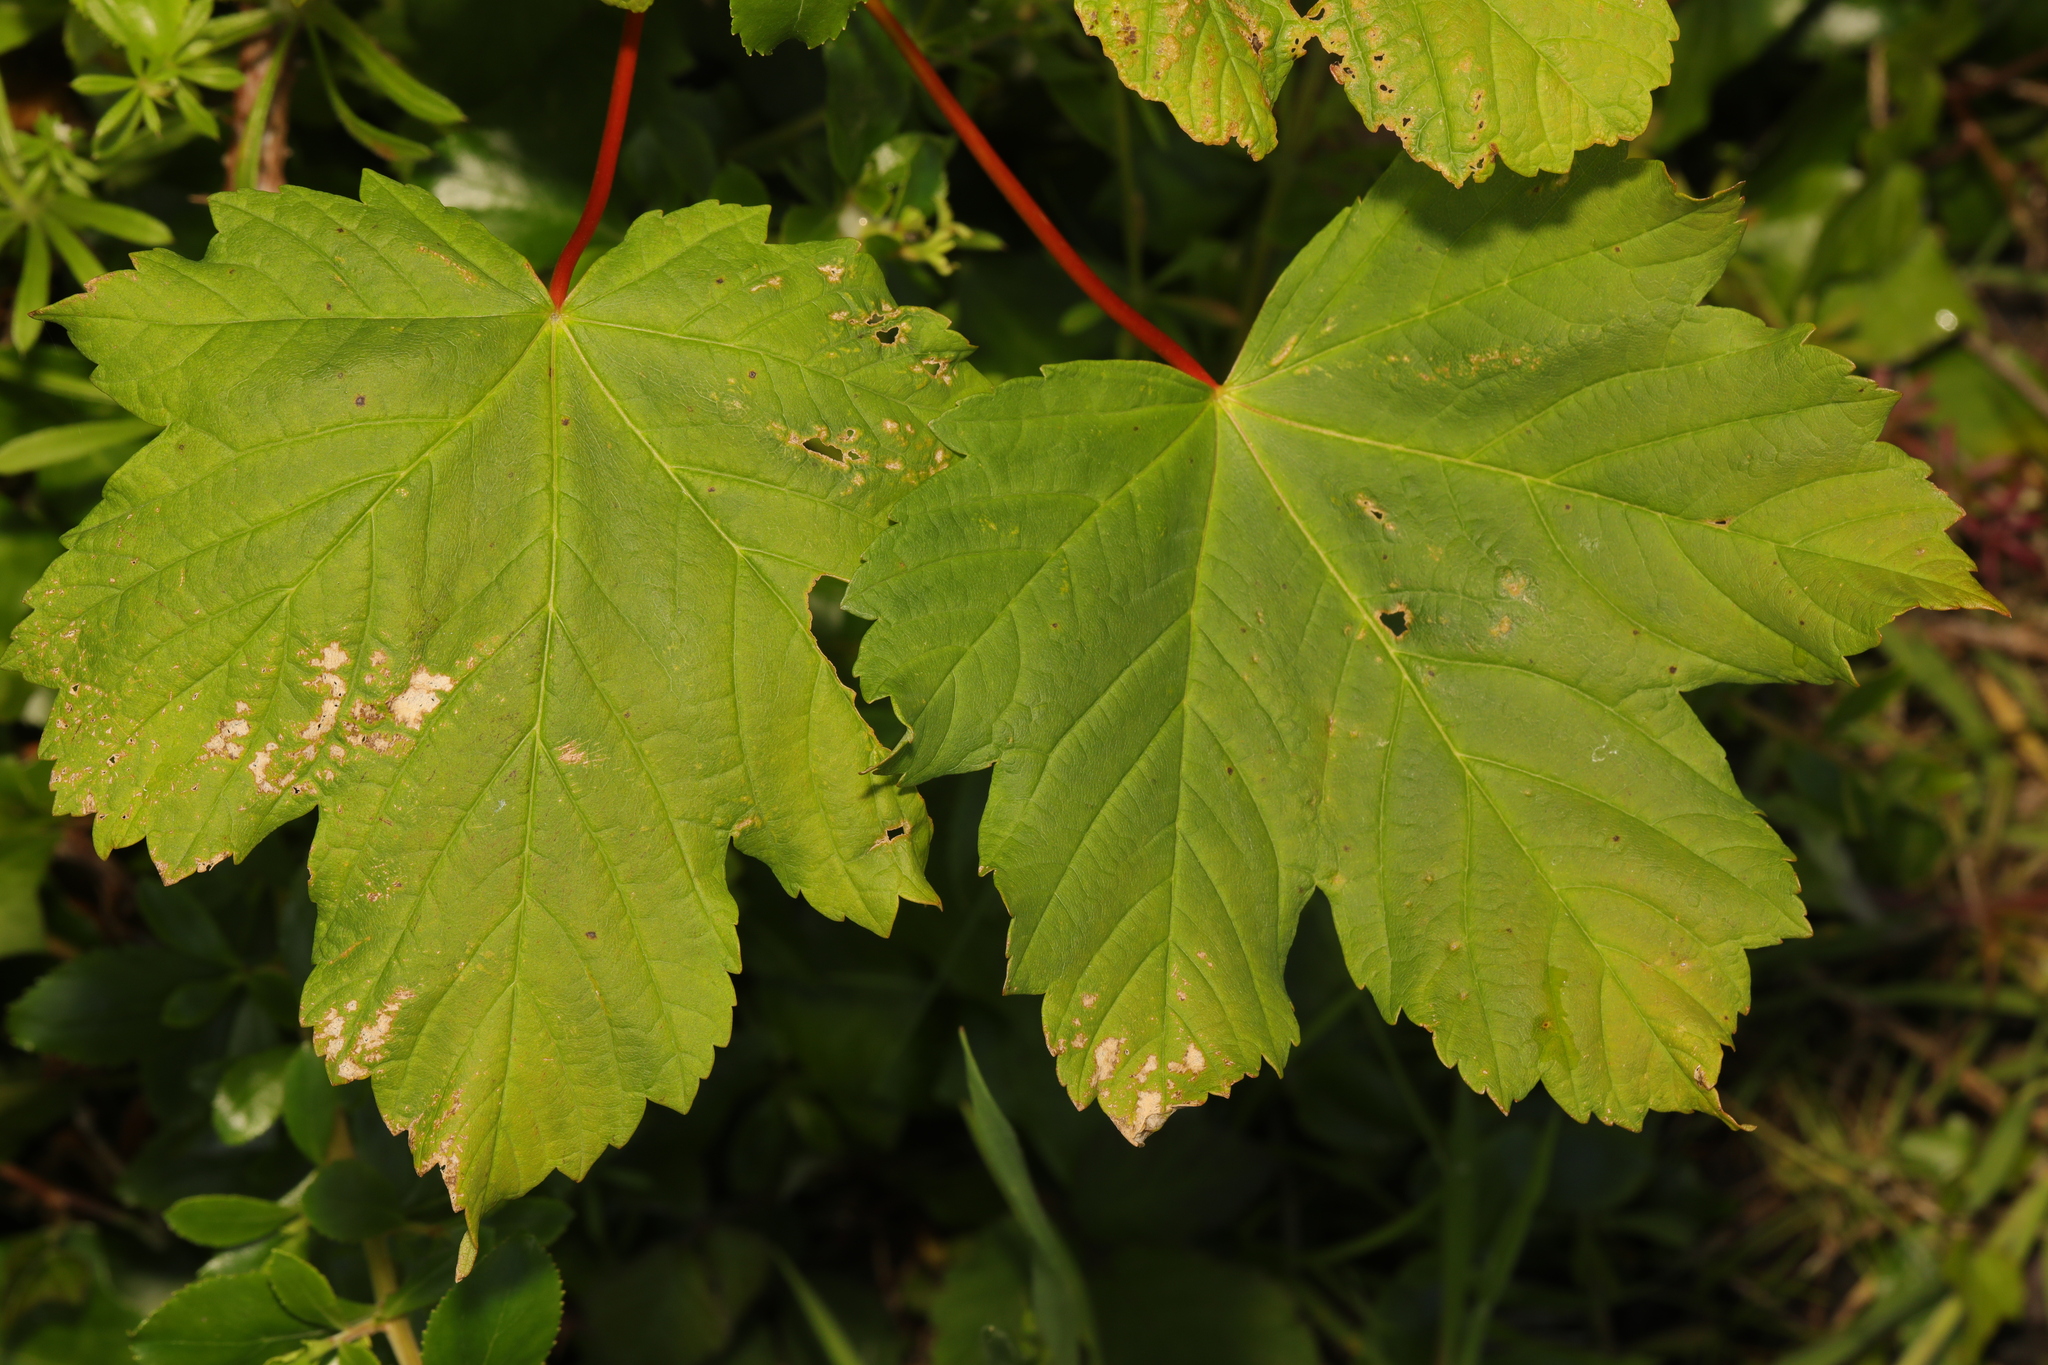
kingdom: Plantae
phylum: Tracheophyta
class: Magnoliopsida
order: Sapindales
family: Sapindaceae
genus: Acer
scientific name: Acer pseudoplatanus
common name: Sycamore
